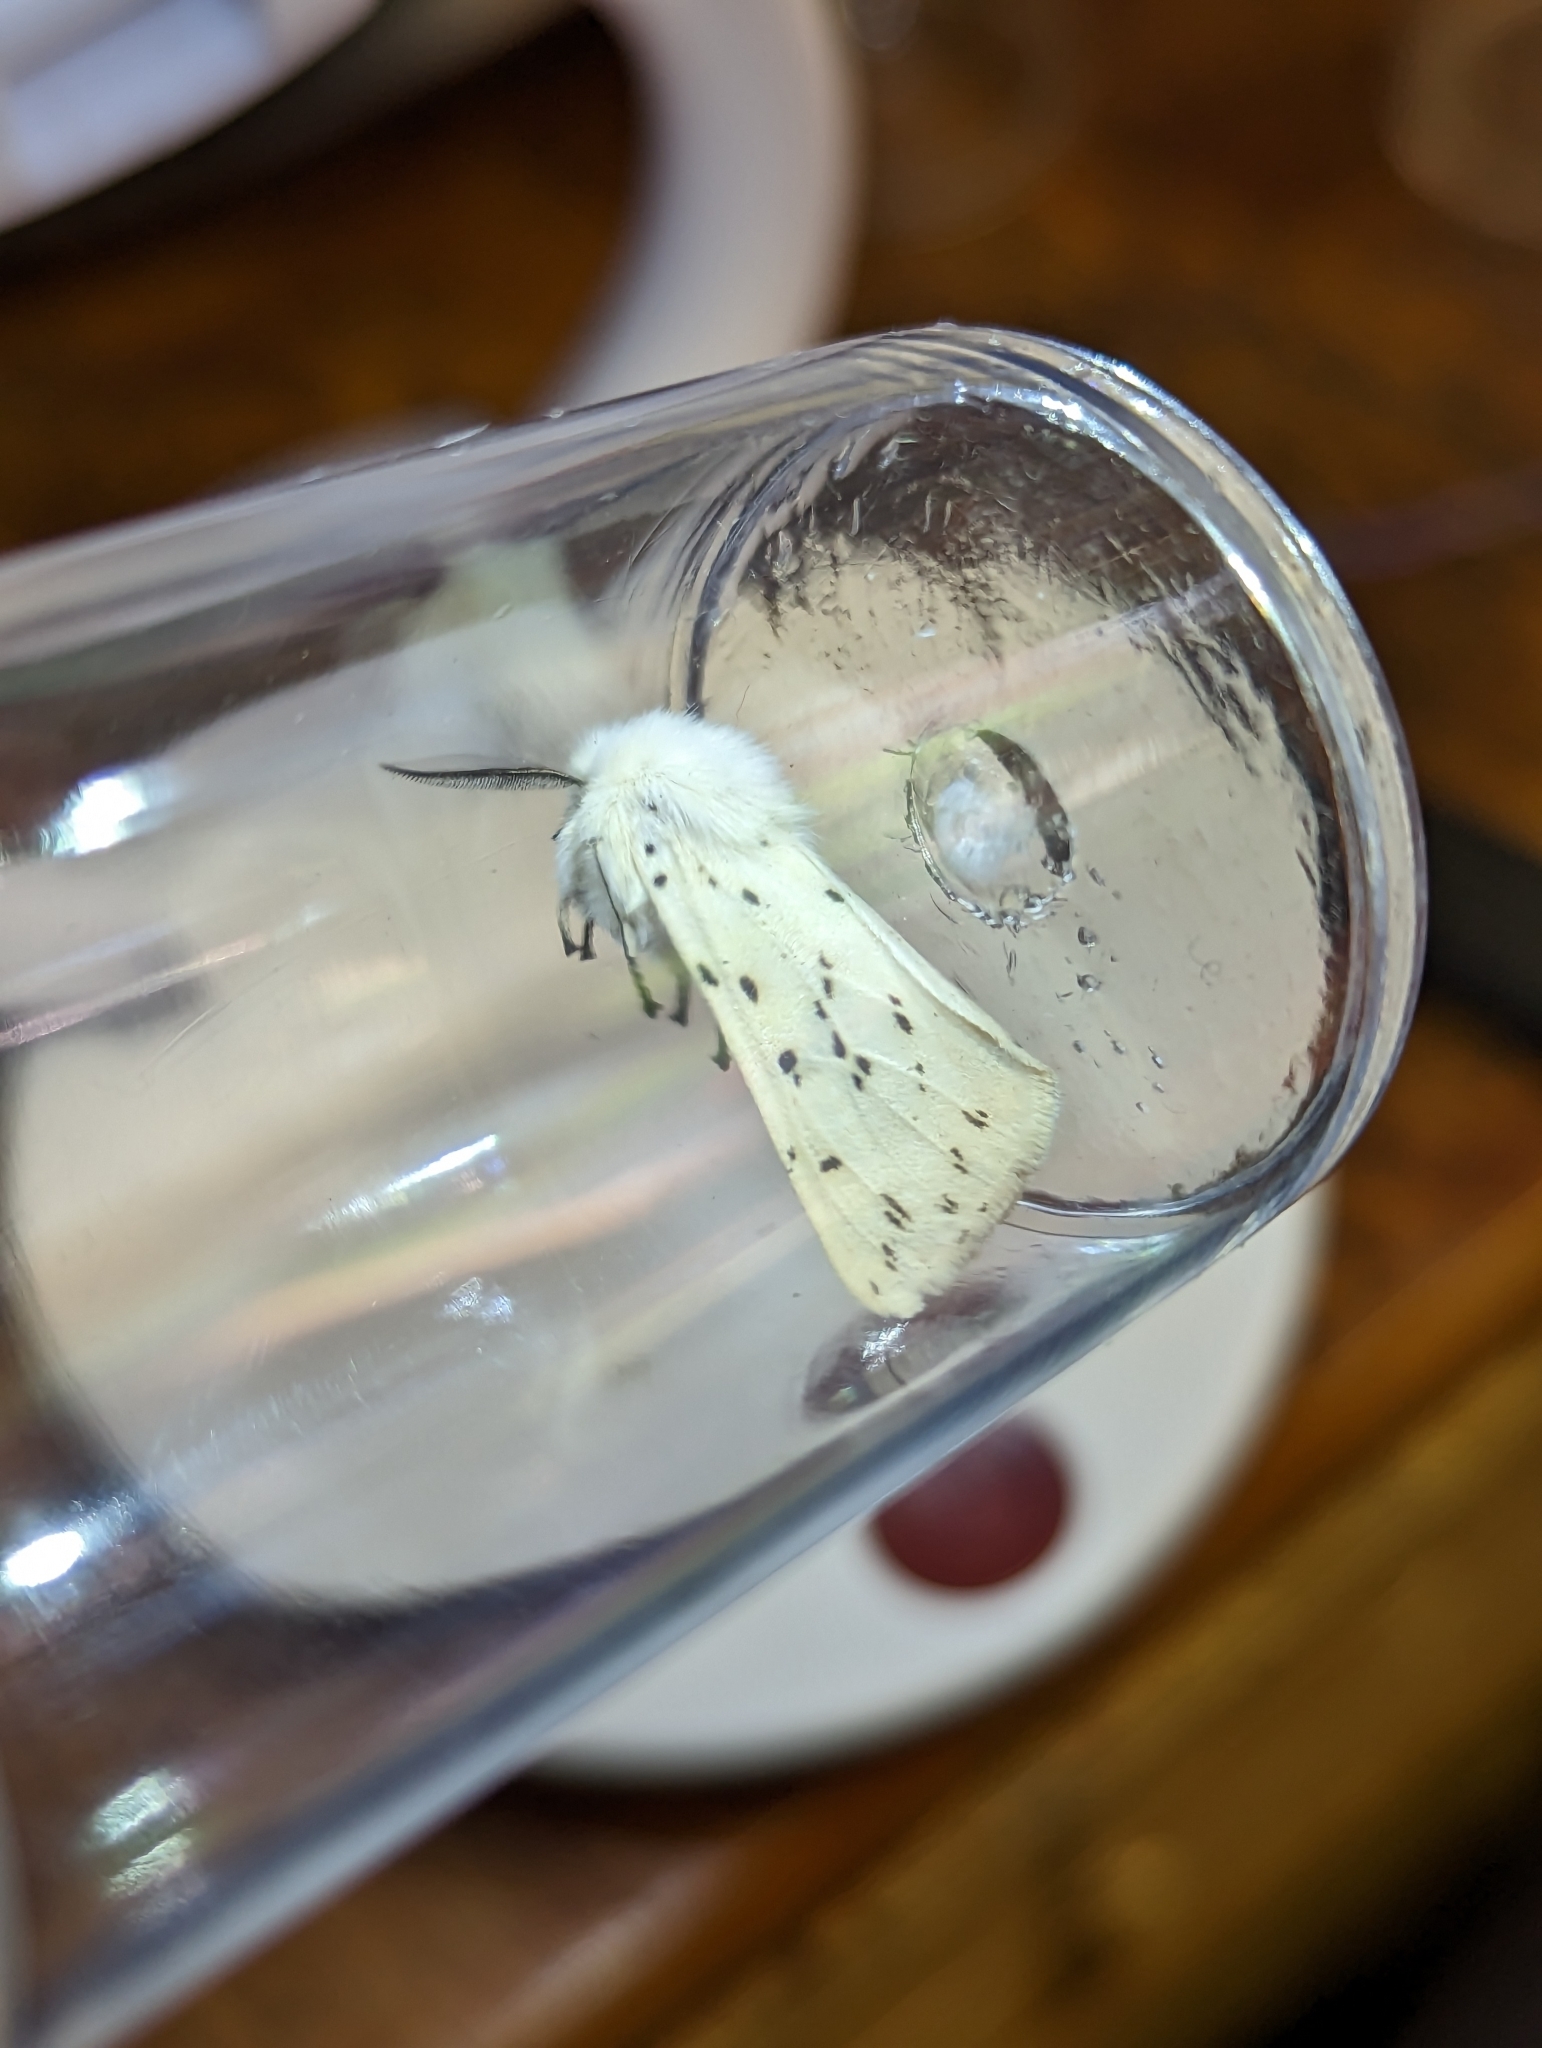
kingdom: Animalia
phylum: Arthropoda
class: Insecta
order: Lepidoptera
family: Erebidae
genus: Spilosoma
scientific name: Spilosoma lubricipeda
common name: White ermine
